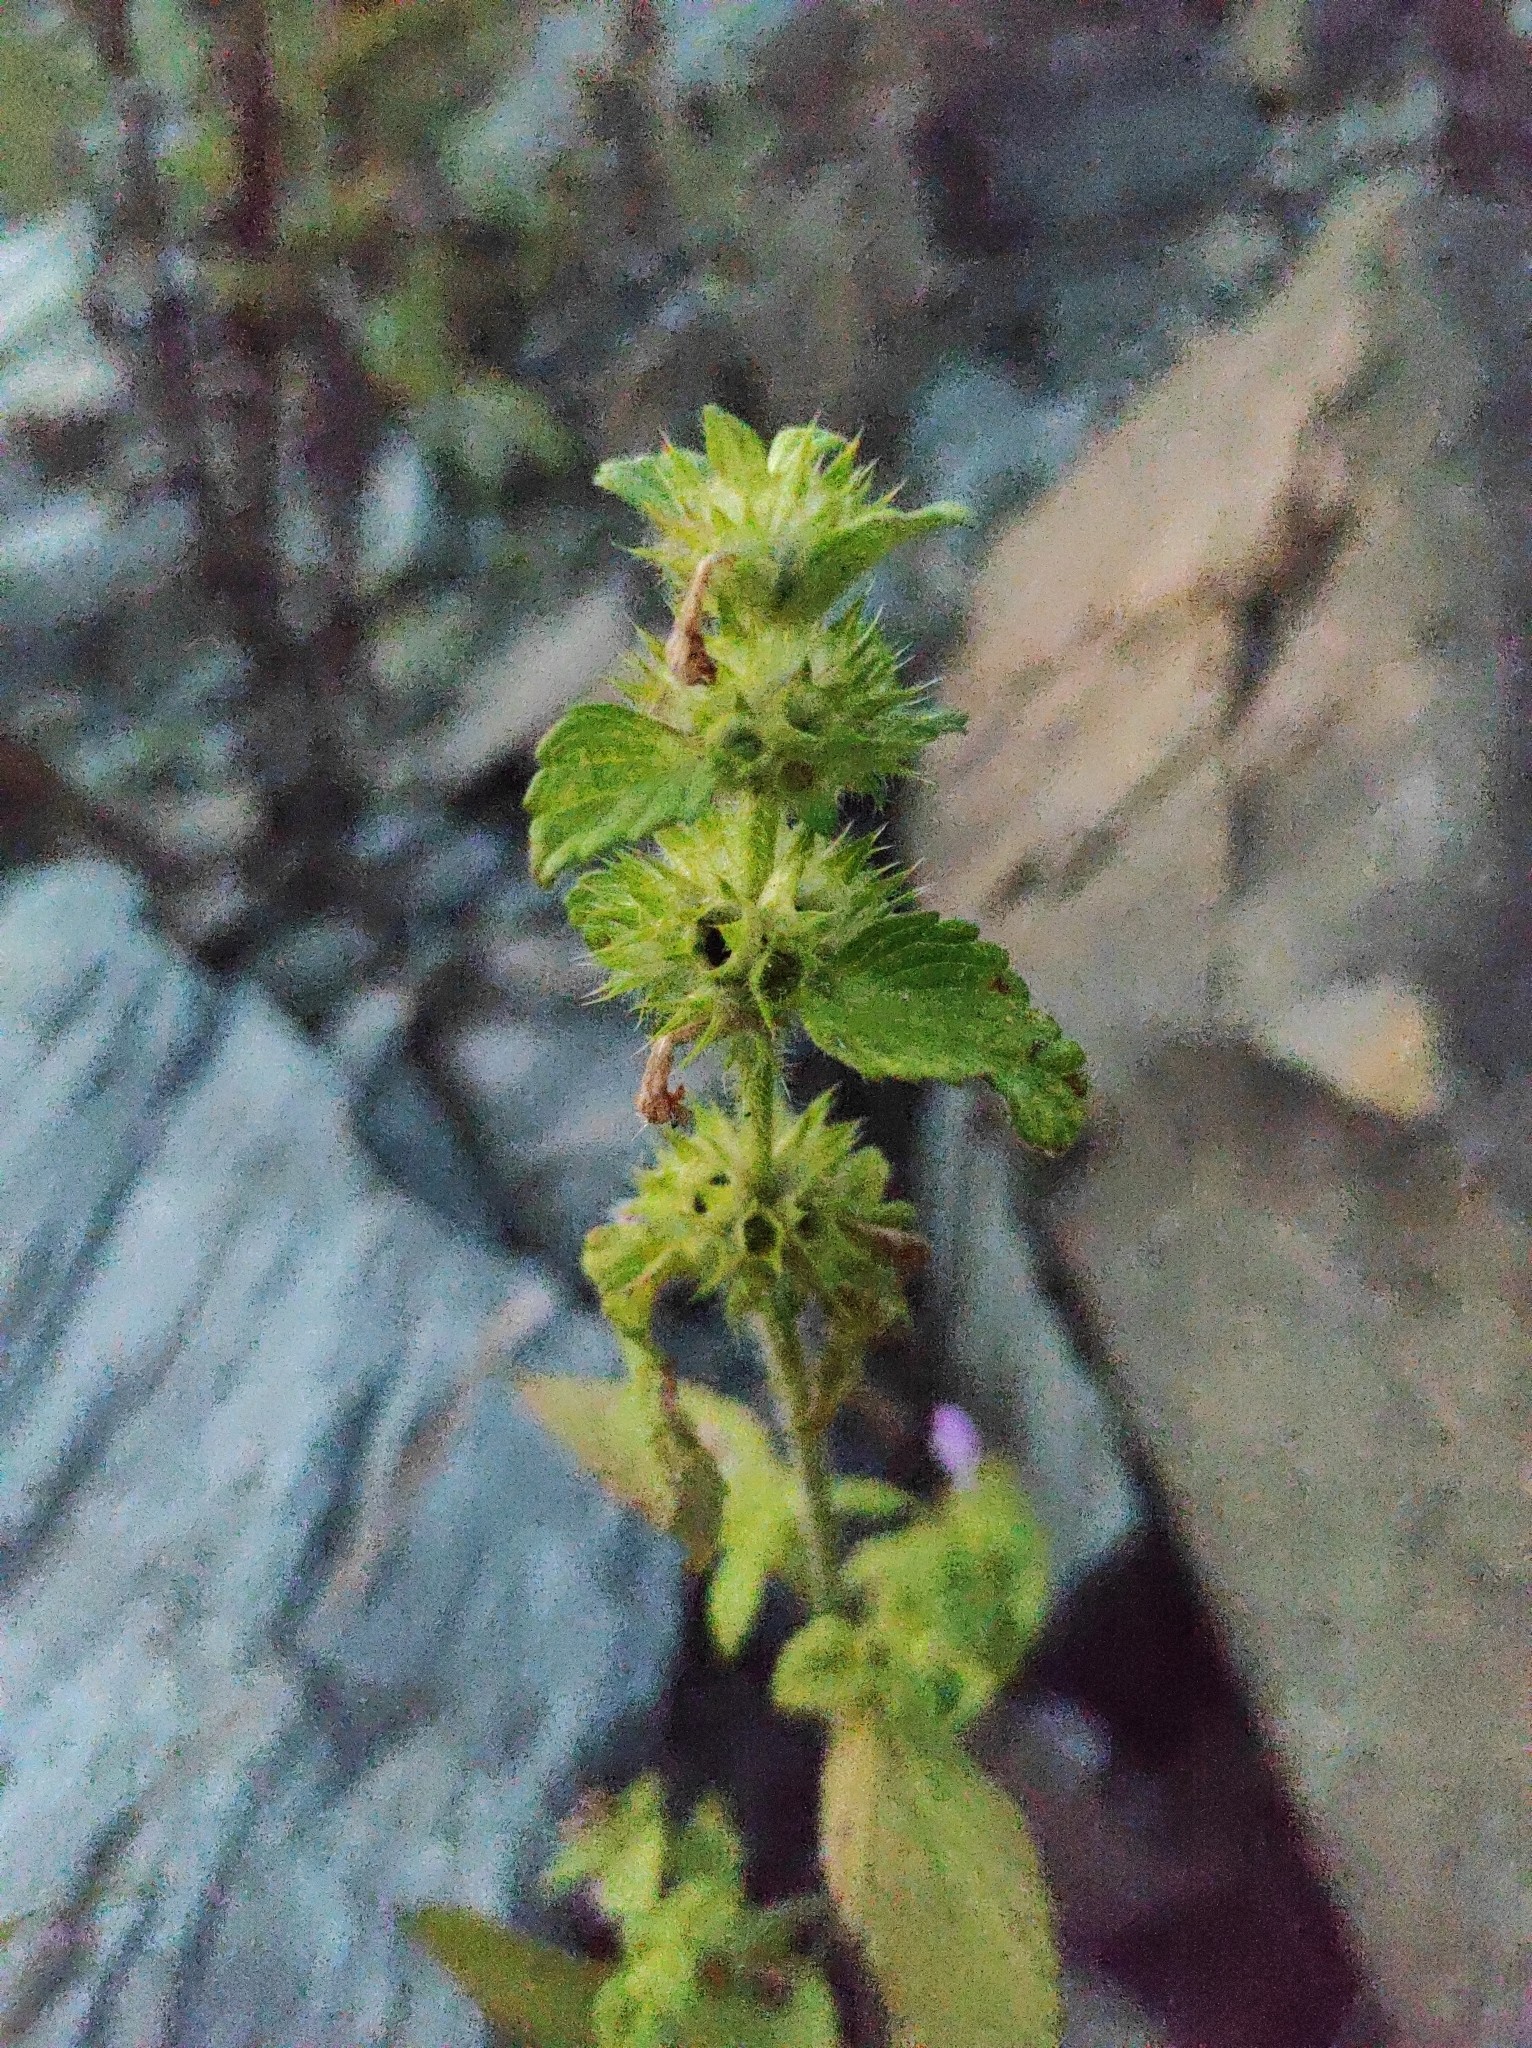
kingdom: Plantae
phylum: Tracheophyta
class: Magnoliopsida
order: Lamiales
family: Lamiaceae
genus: Galeopsis
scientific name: Galeopsis bifida
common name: Bifid hemp-nettle
